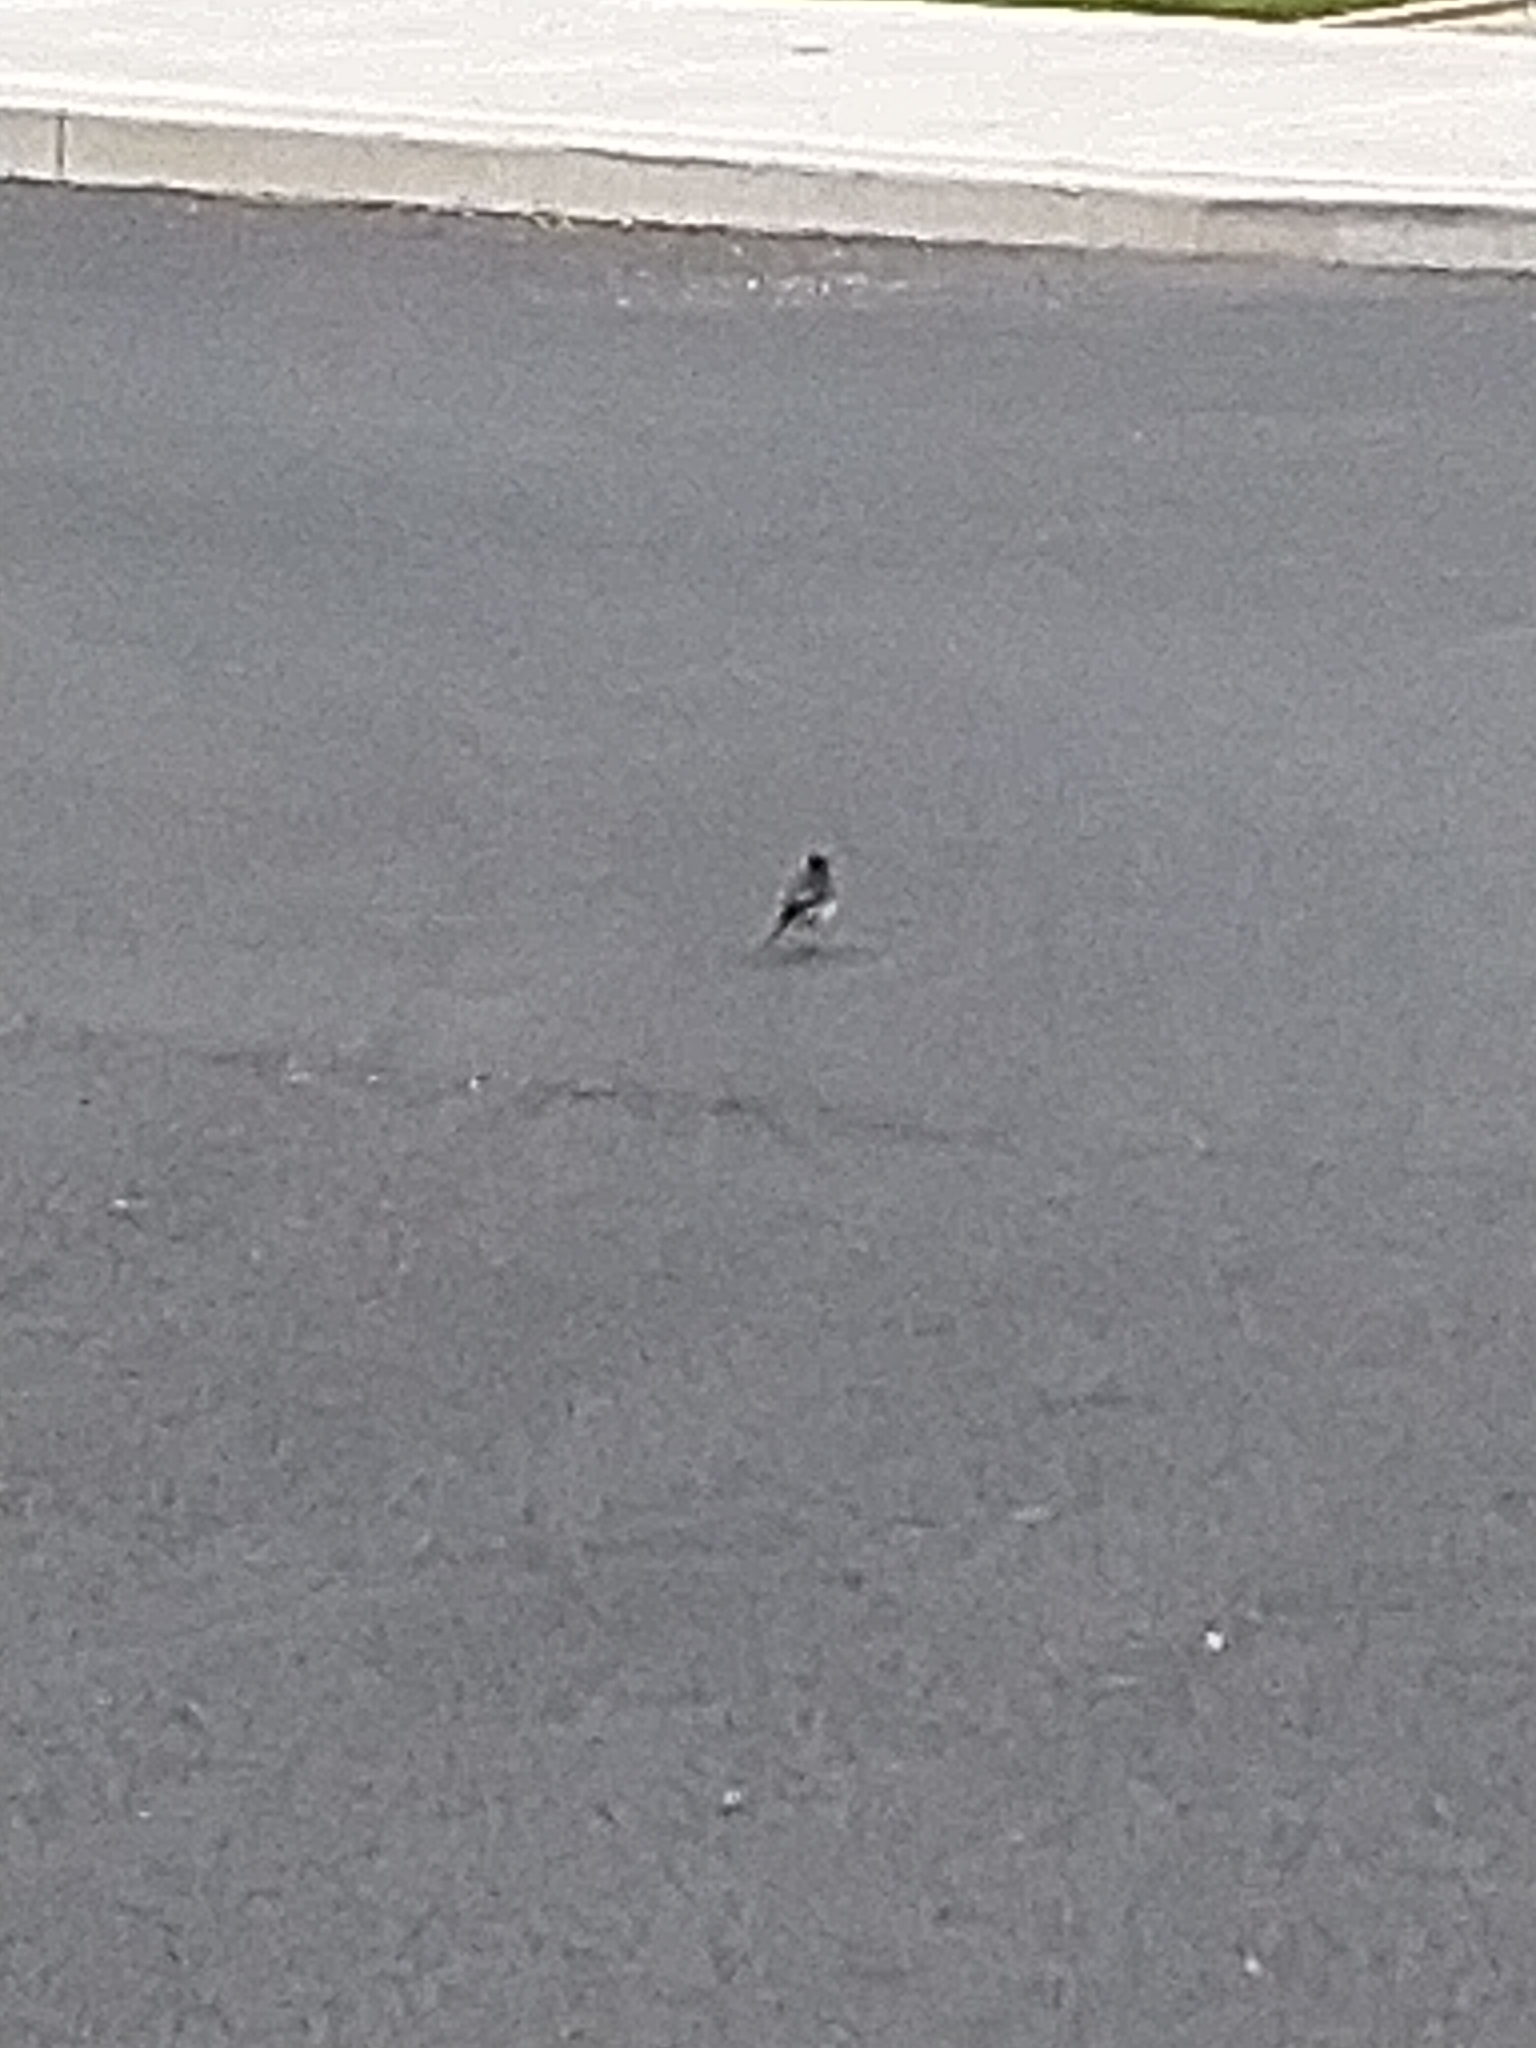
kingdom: Animalia
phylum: Chordata
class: Aves
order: Passeriformes
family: Motacillidae
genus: Motacilla
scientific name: Motacilla alba
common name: White wagtail
